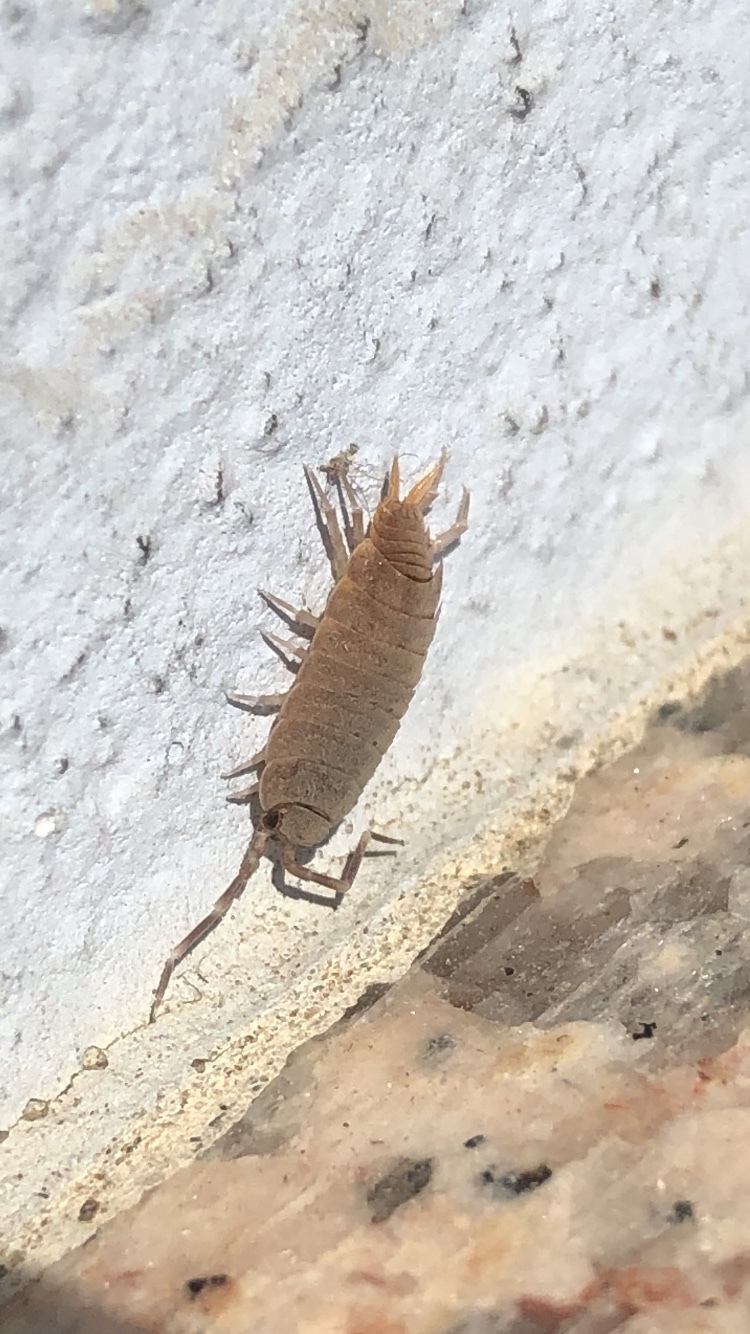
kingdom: Animalia
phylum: Arthropoda
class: Malacostraca
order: Isopoda
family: Porcellionidae
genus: Porcellionides
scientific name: Porcellionides pruinosus
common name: Plum woodlouse
